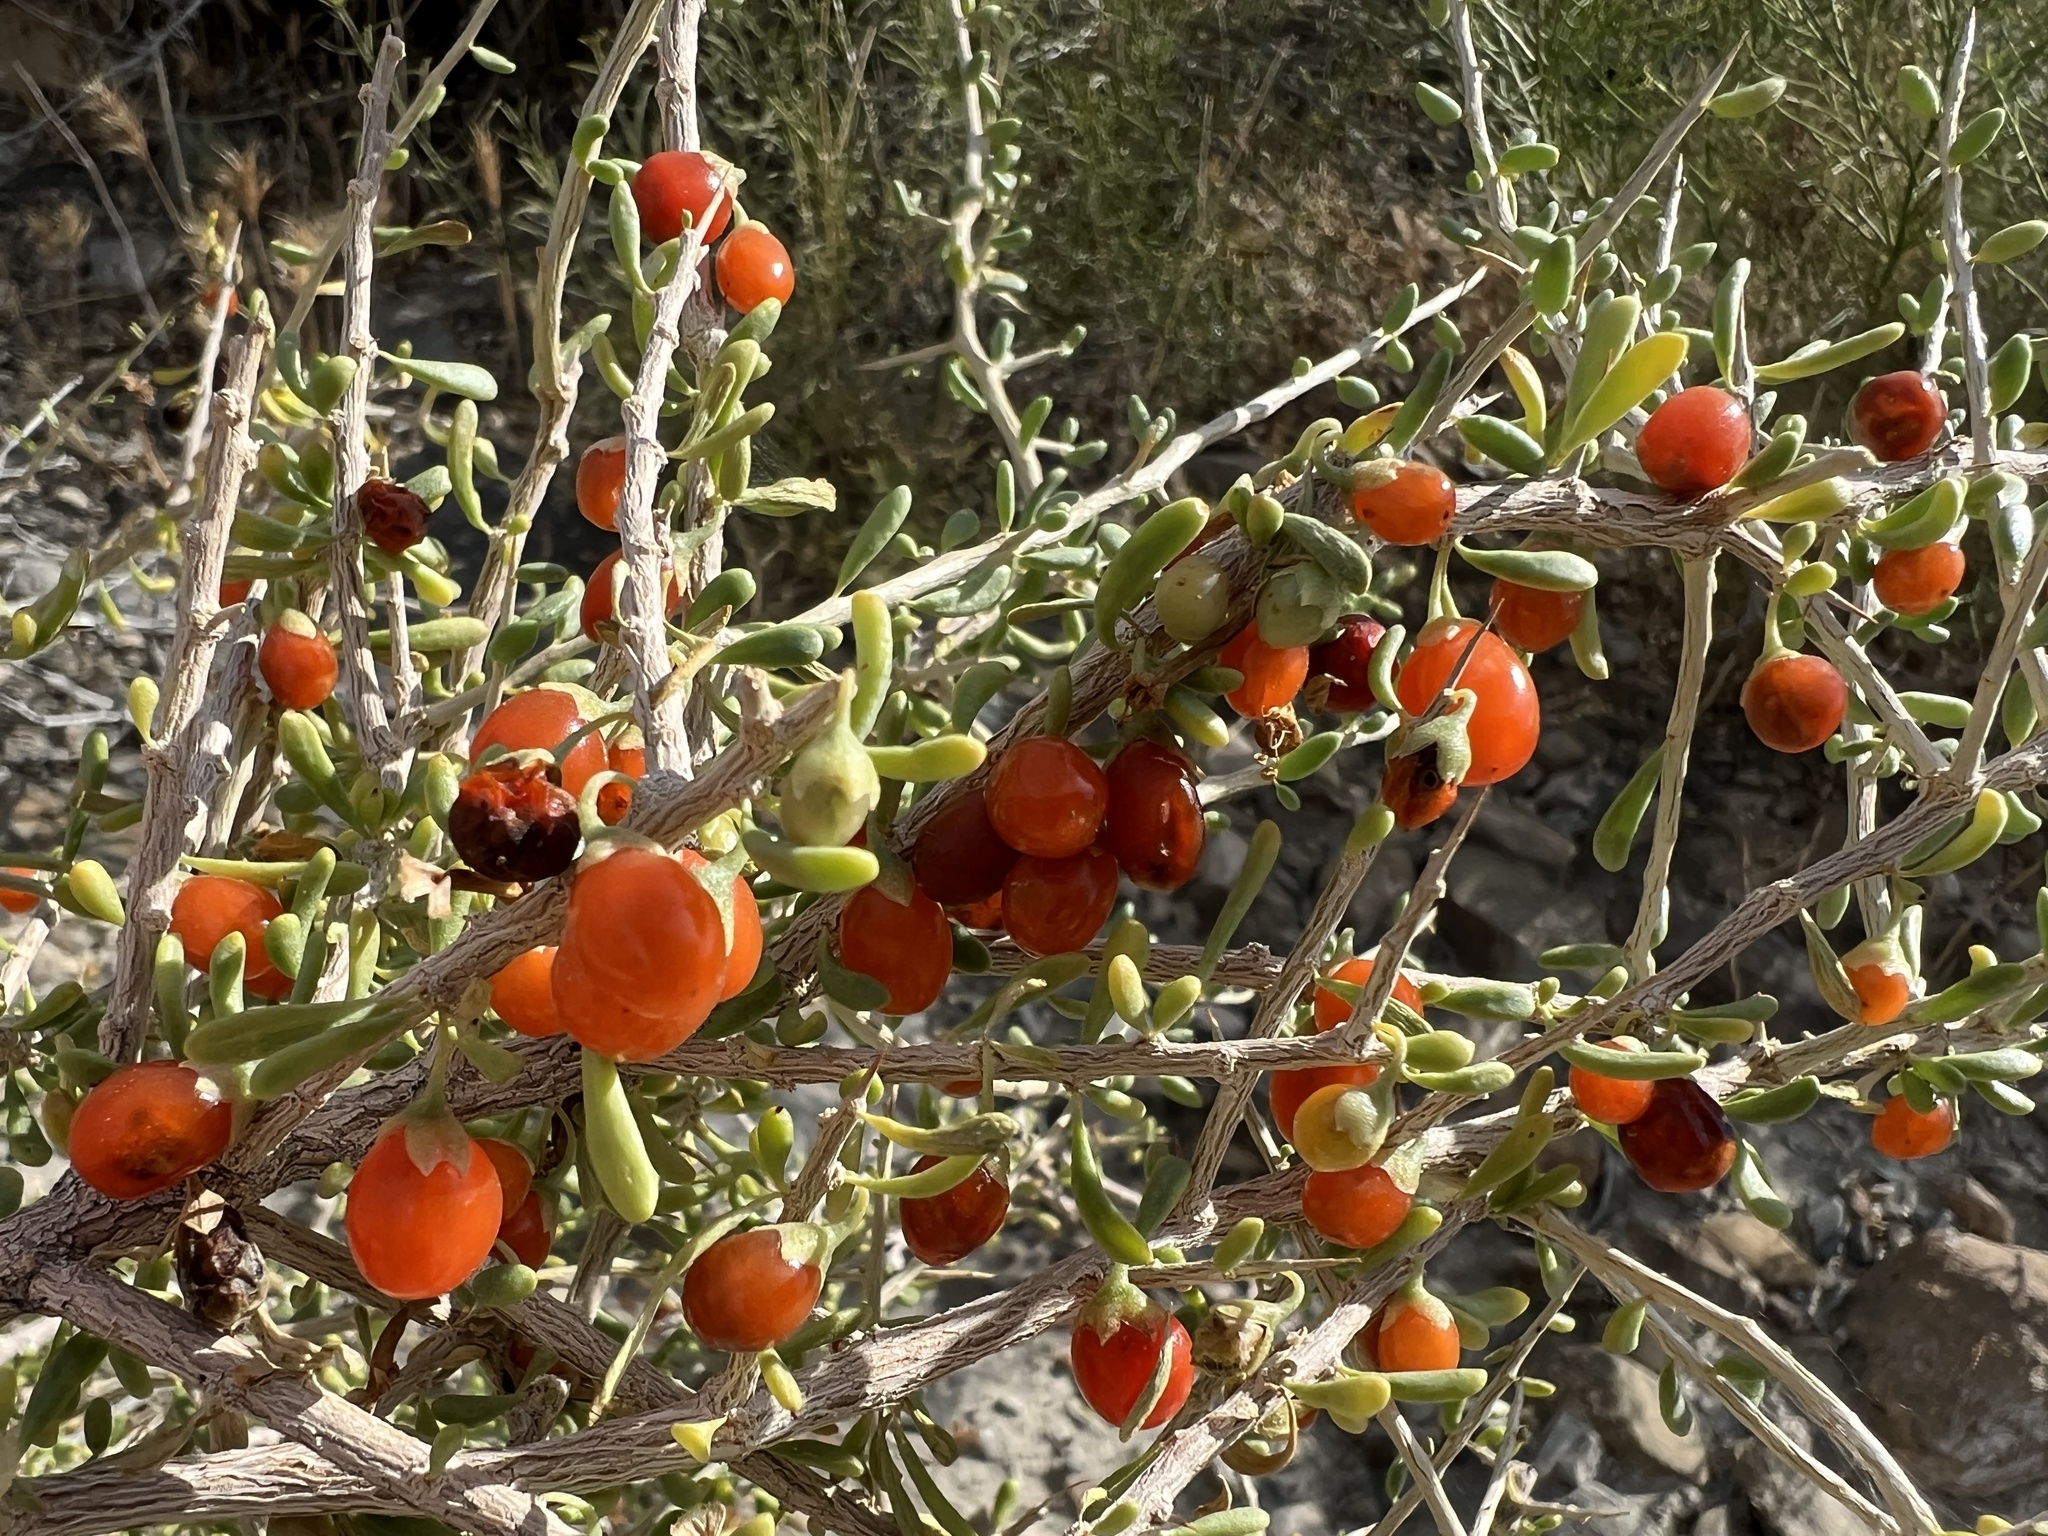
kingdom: Plantae
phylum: Tracheophyta
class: Magnoliopsida
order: Solanales
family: Solanaceae
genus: Lycium
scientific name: Lycium andersonii
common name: Water-jacket
